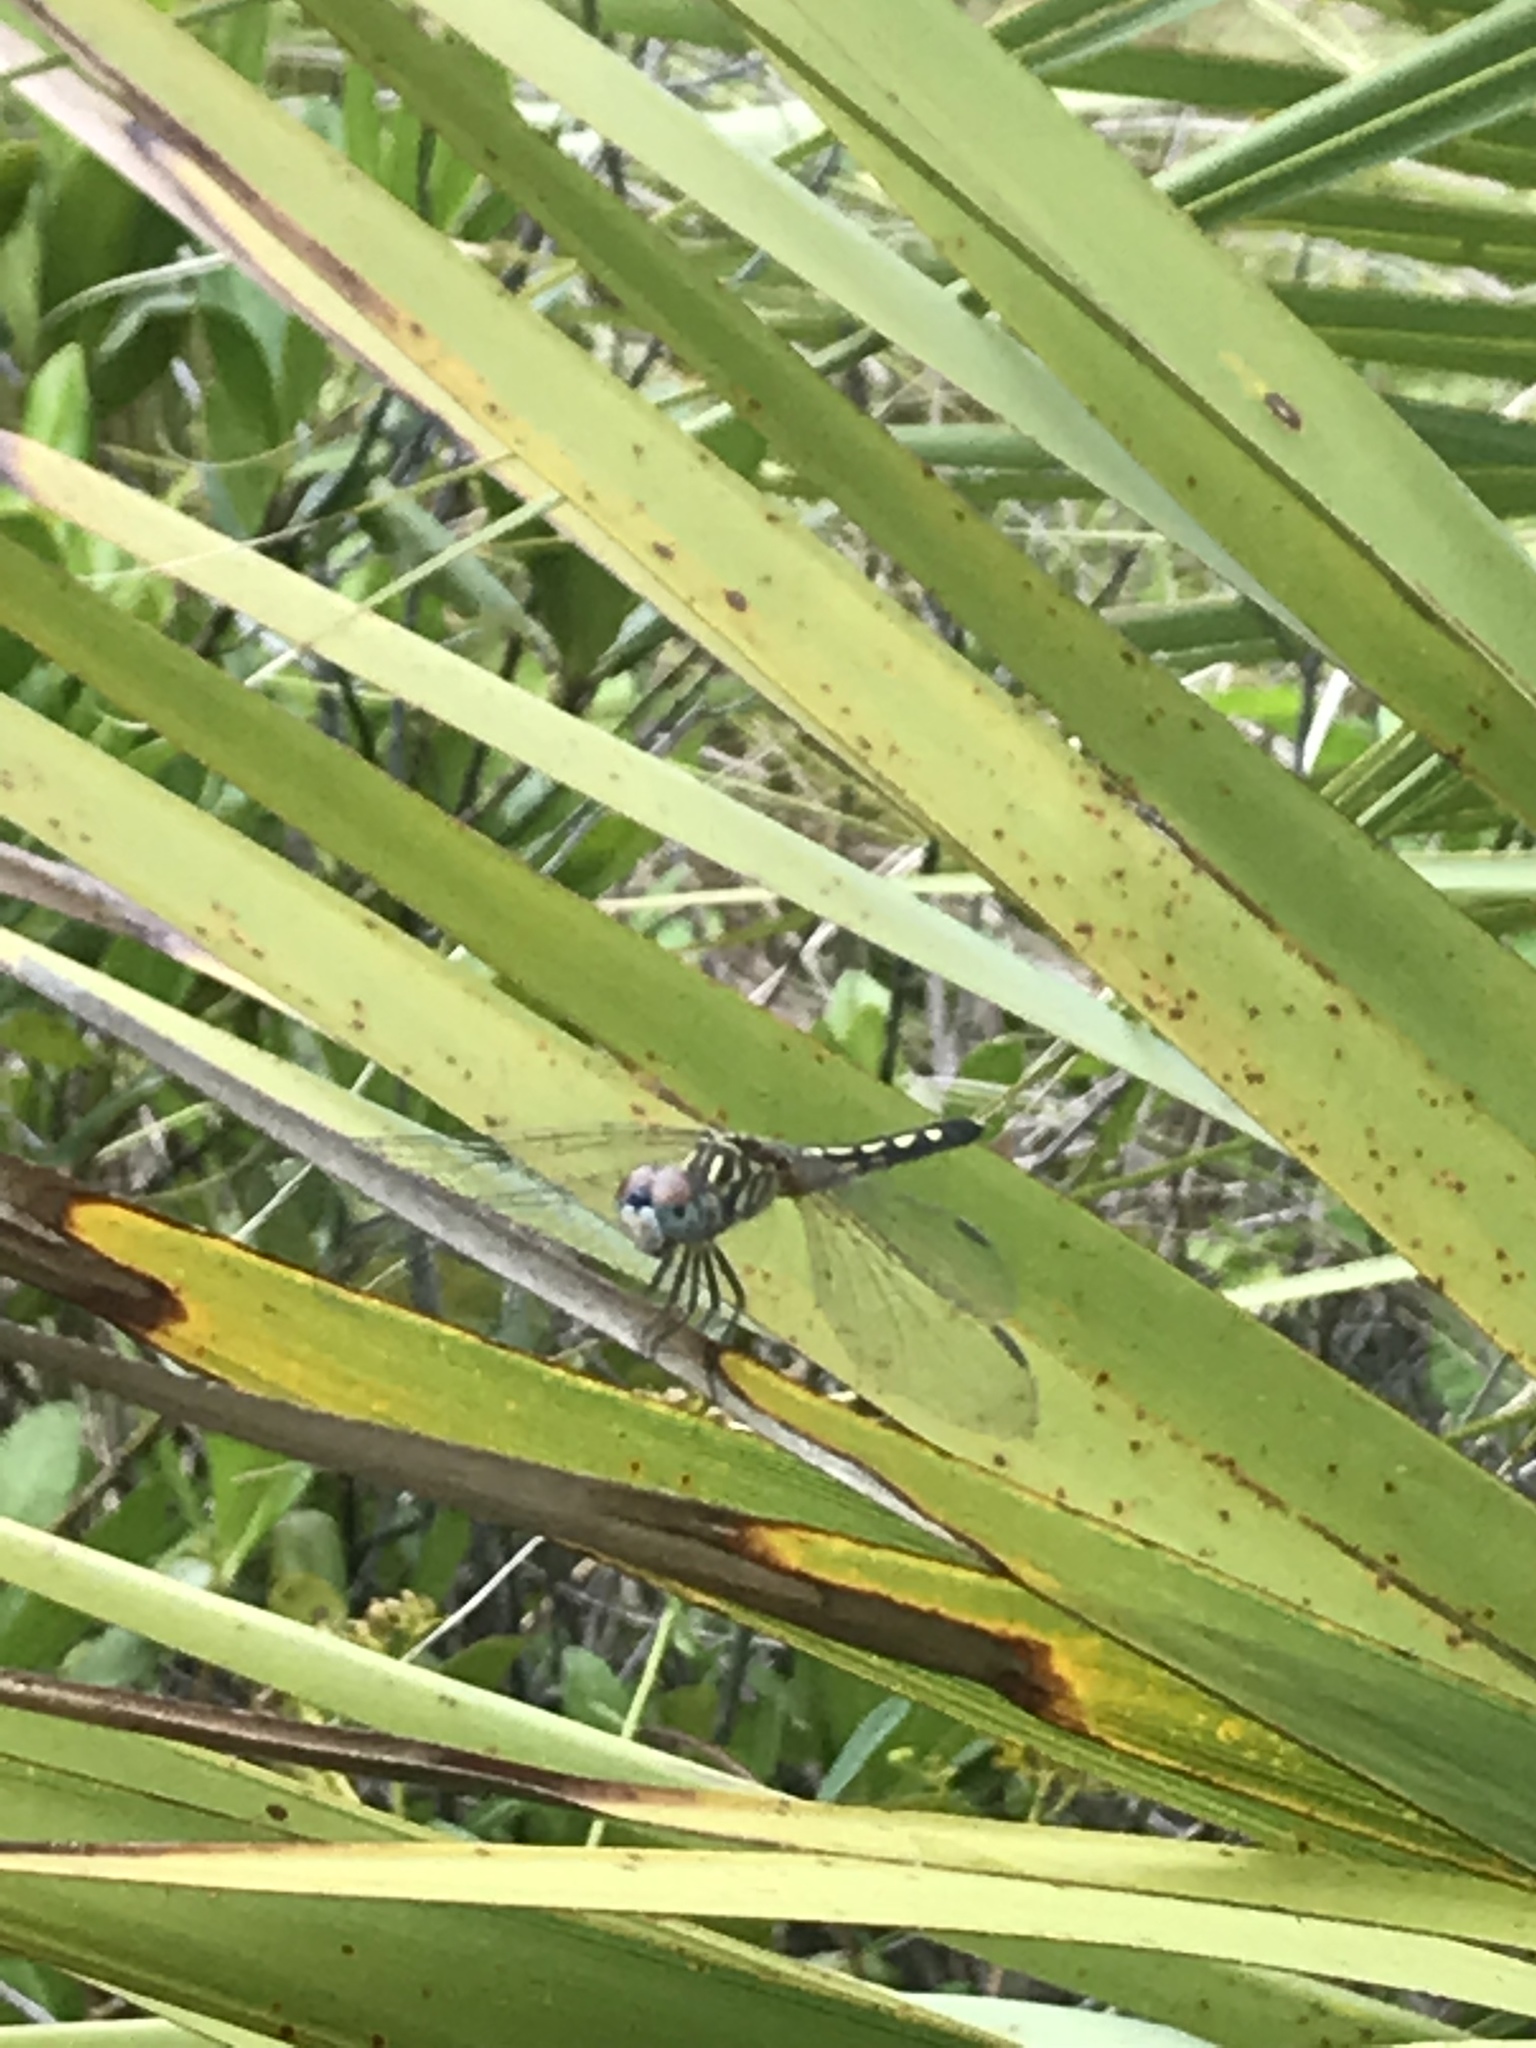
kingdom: Animalia
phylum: Arthropoda
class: Insecta
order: Odonata
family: Libellulidae
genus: Pachydiplax
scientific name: Pachydiplax longipennis
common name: Blue dasher
